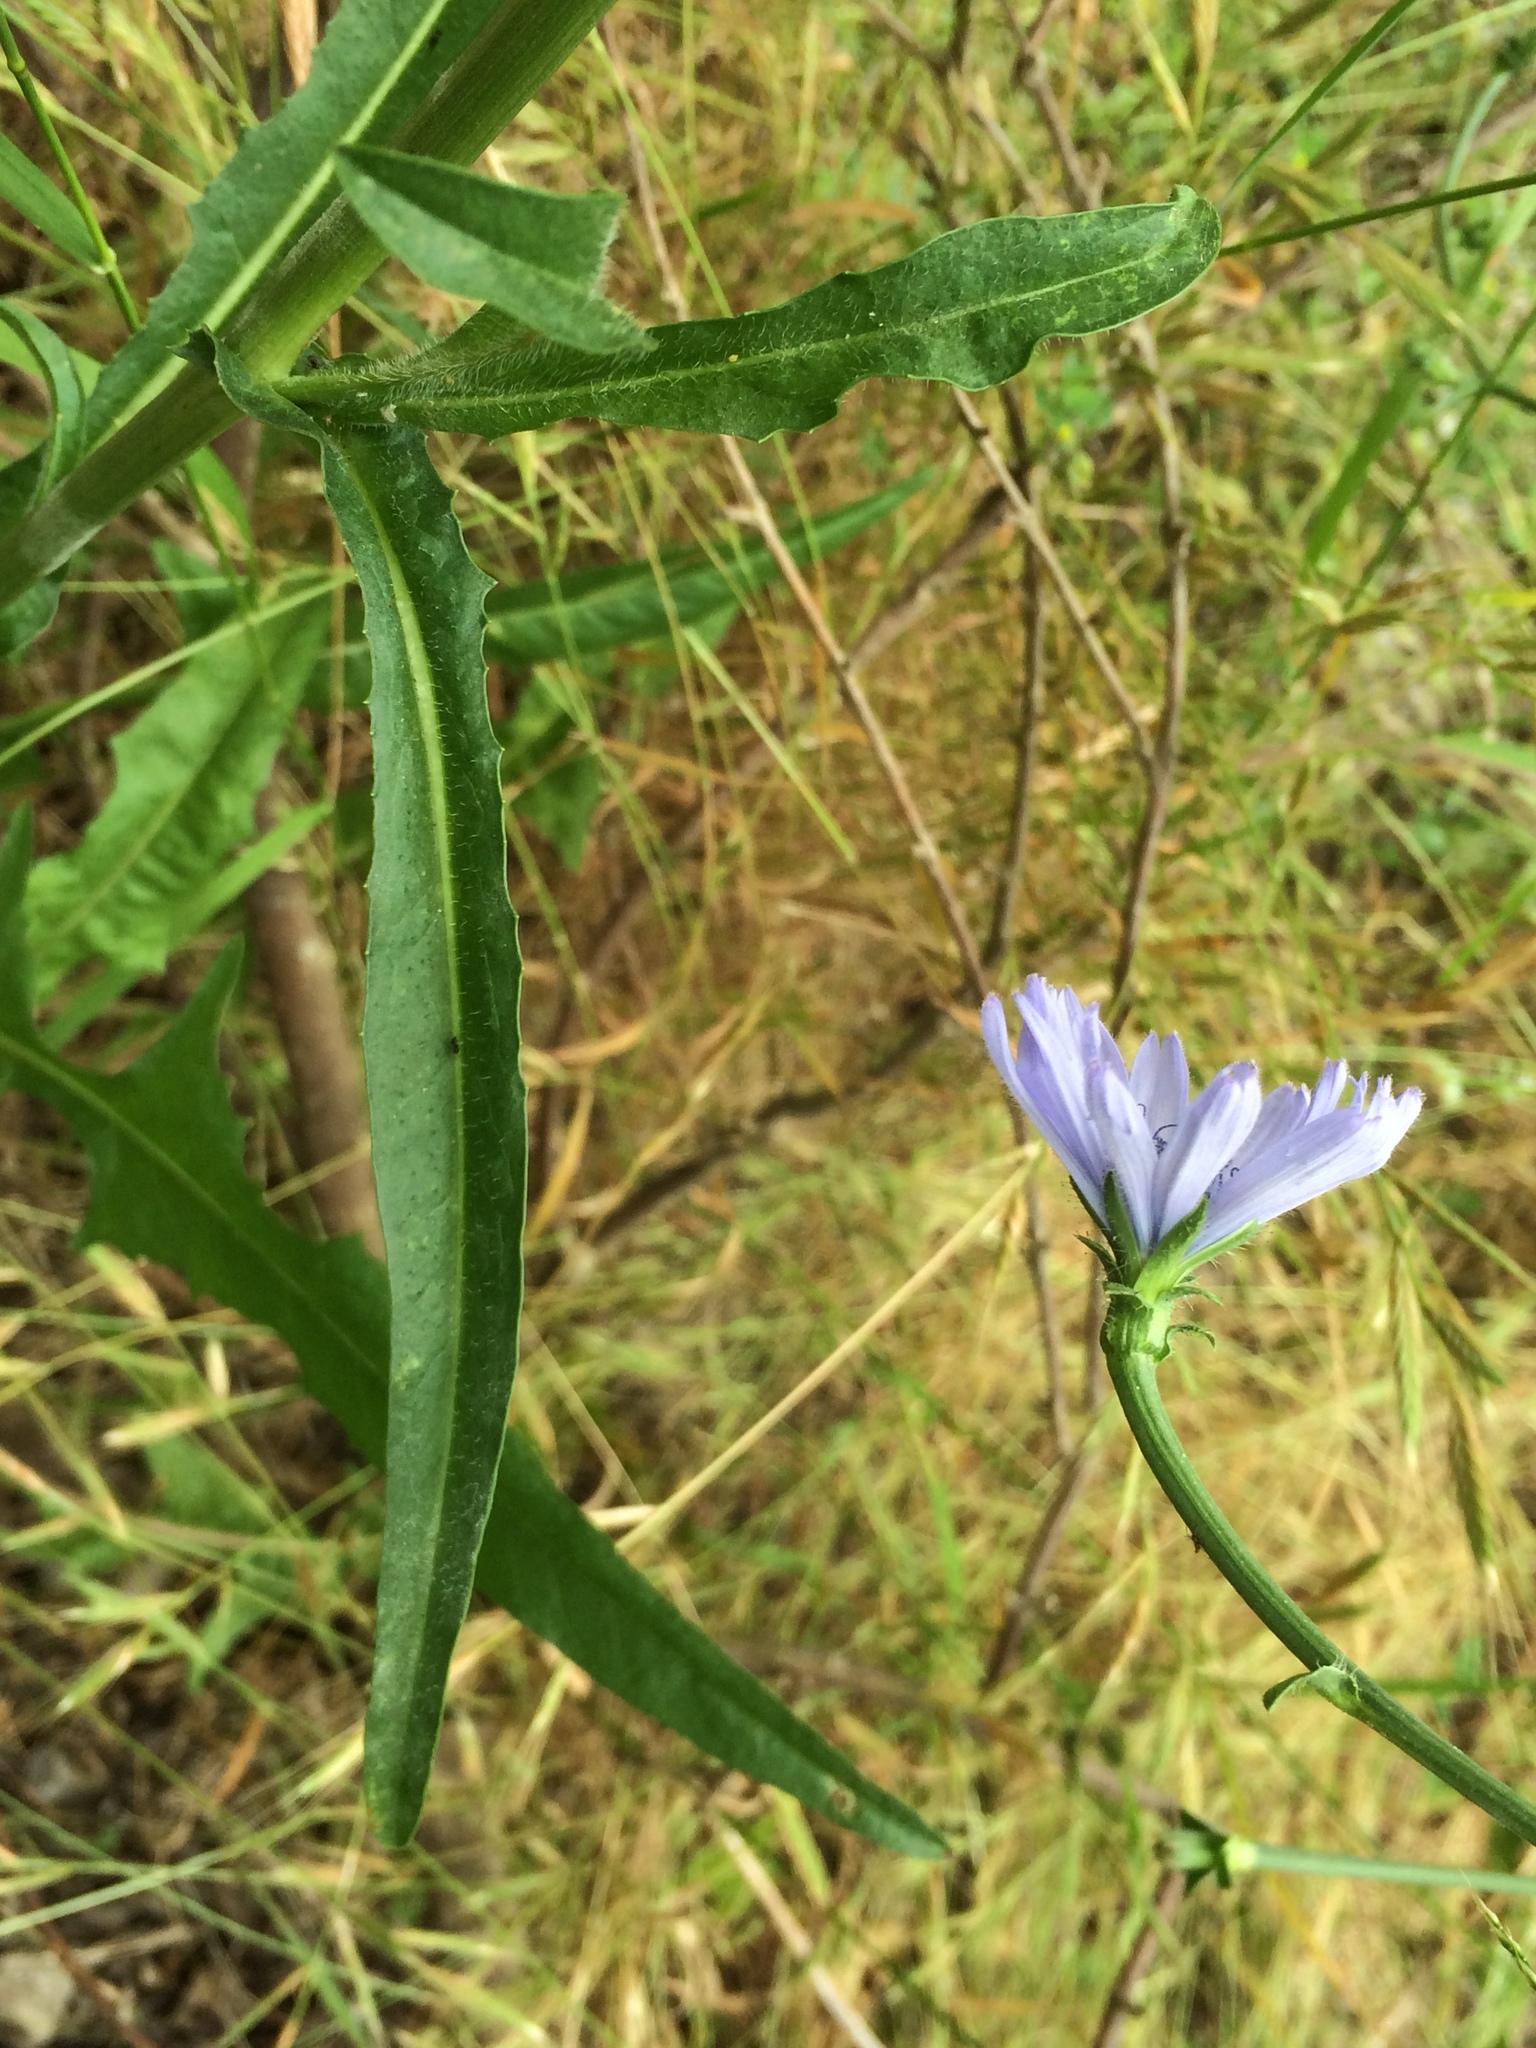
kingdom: Plantae
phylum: Tracheophyta
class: Magnoliopsida
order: Asterales
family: Asteraceae
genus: Cichorium
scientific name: Cichorium intybus
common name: Chicory
